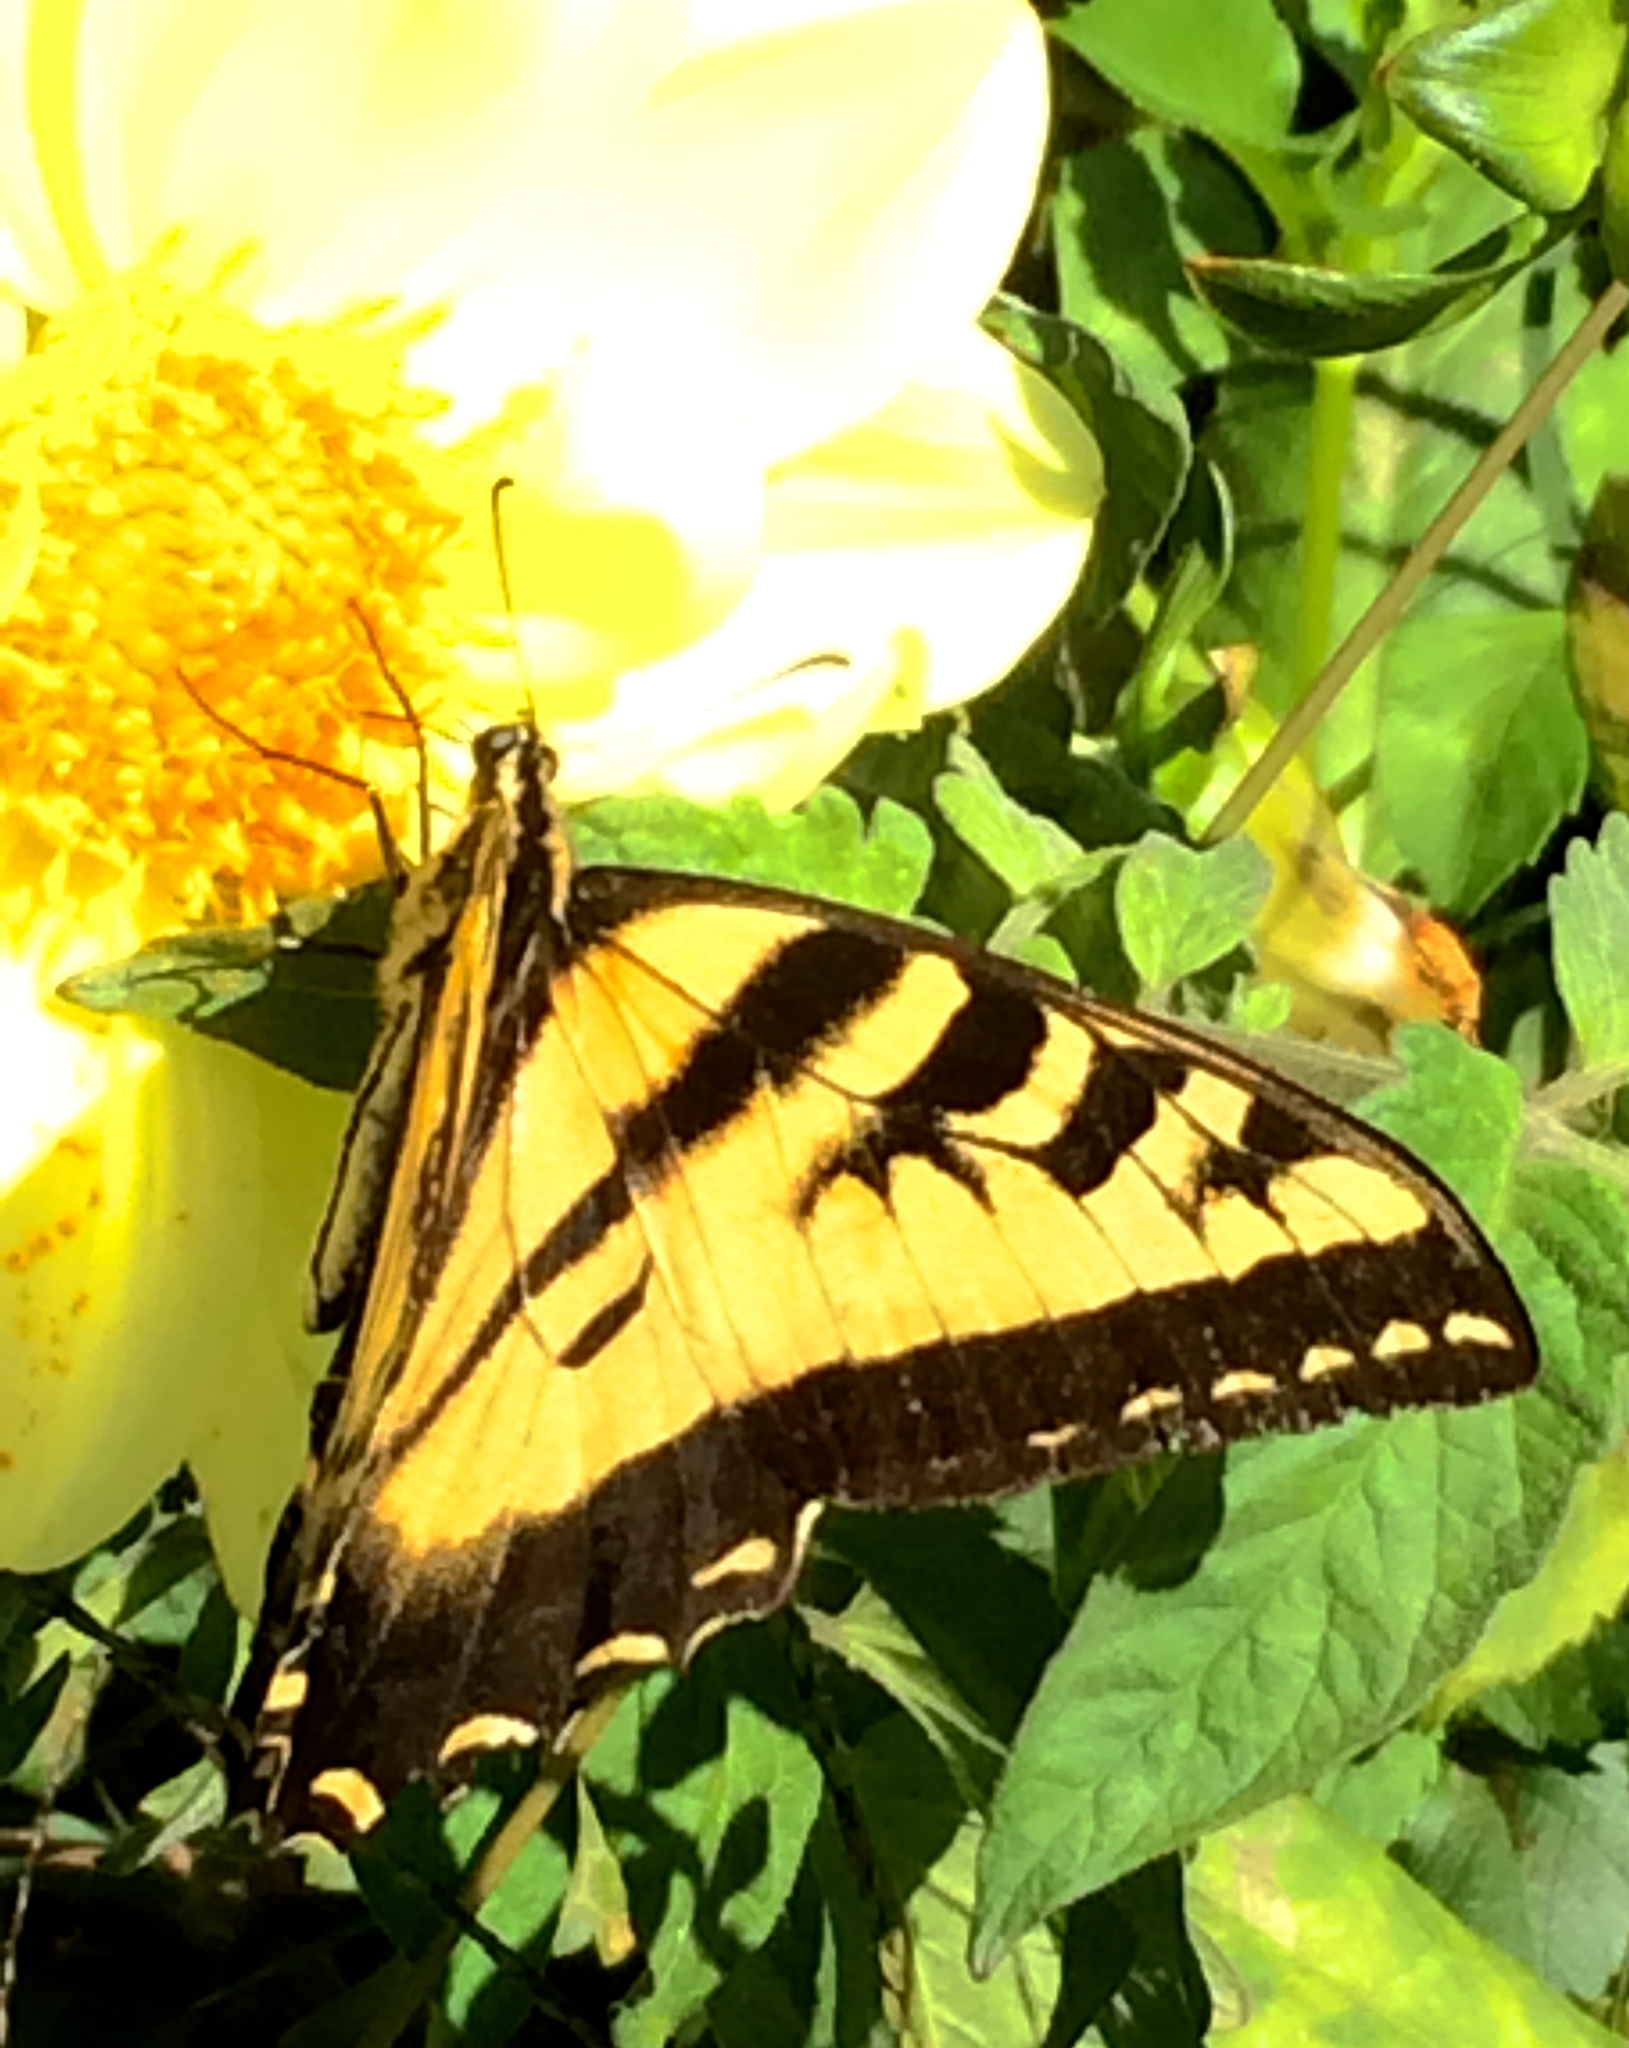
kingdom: Animalia
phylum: Arthropoda
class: Insecta
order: Lepidoptera
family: Papilionidae
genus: Papilio
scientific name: Papilio rutulus
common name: Western tiger swallowtail
